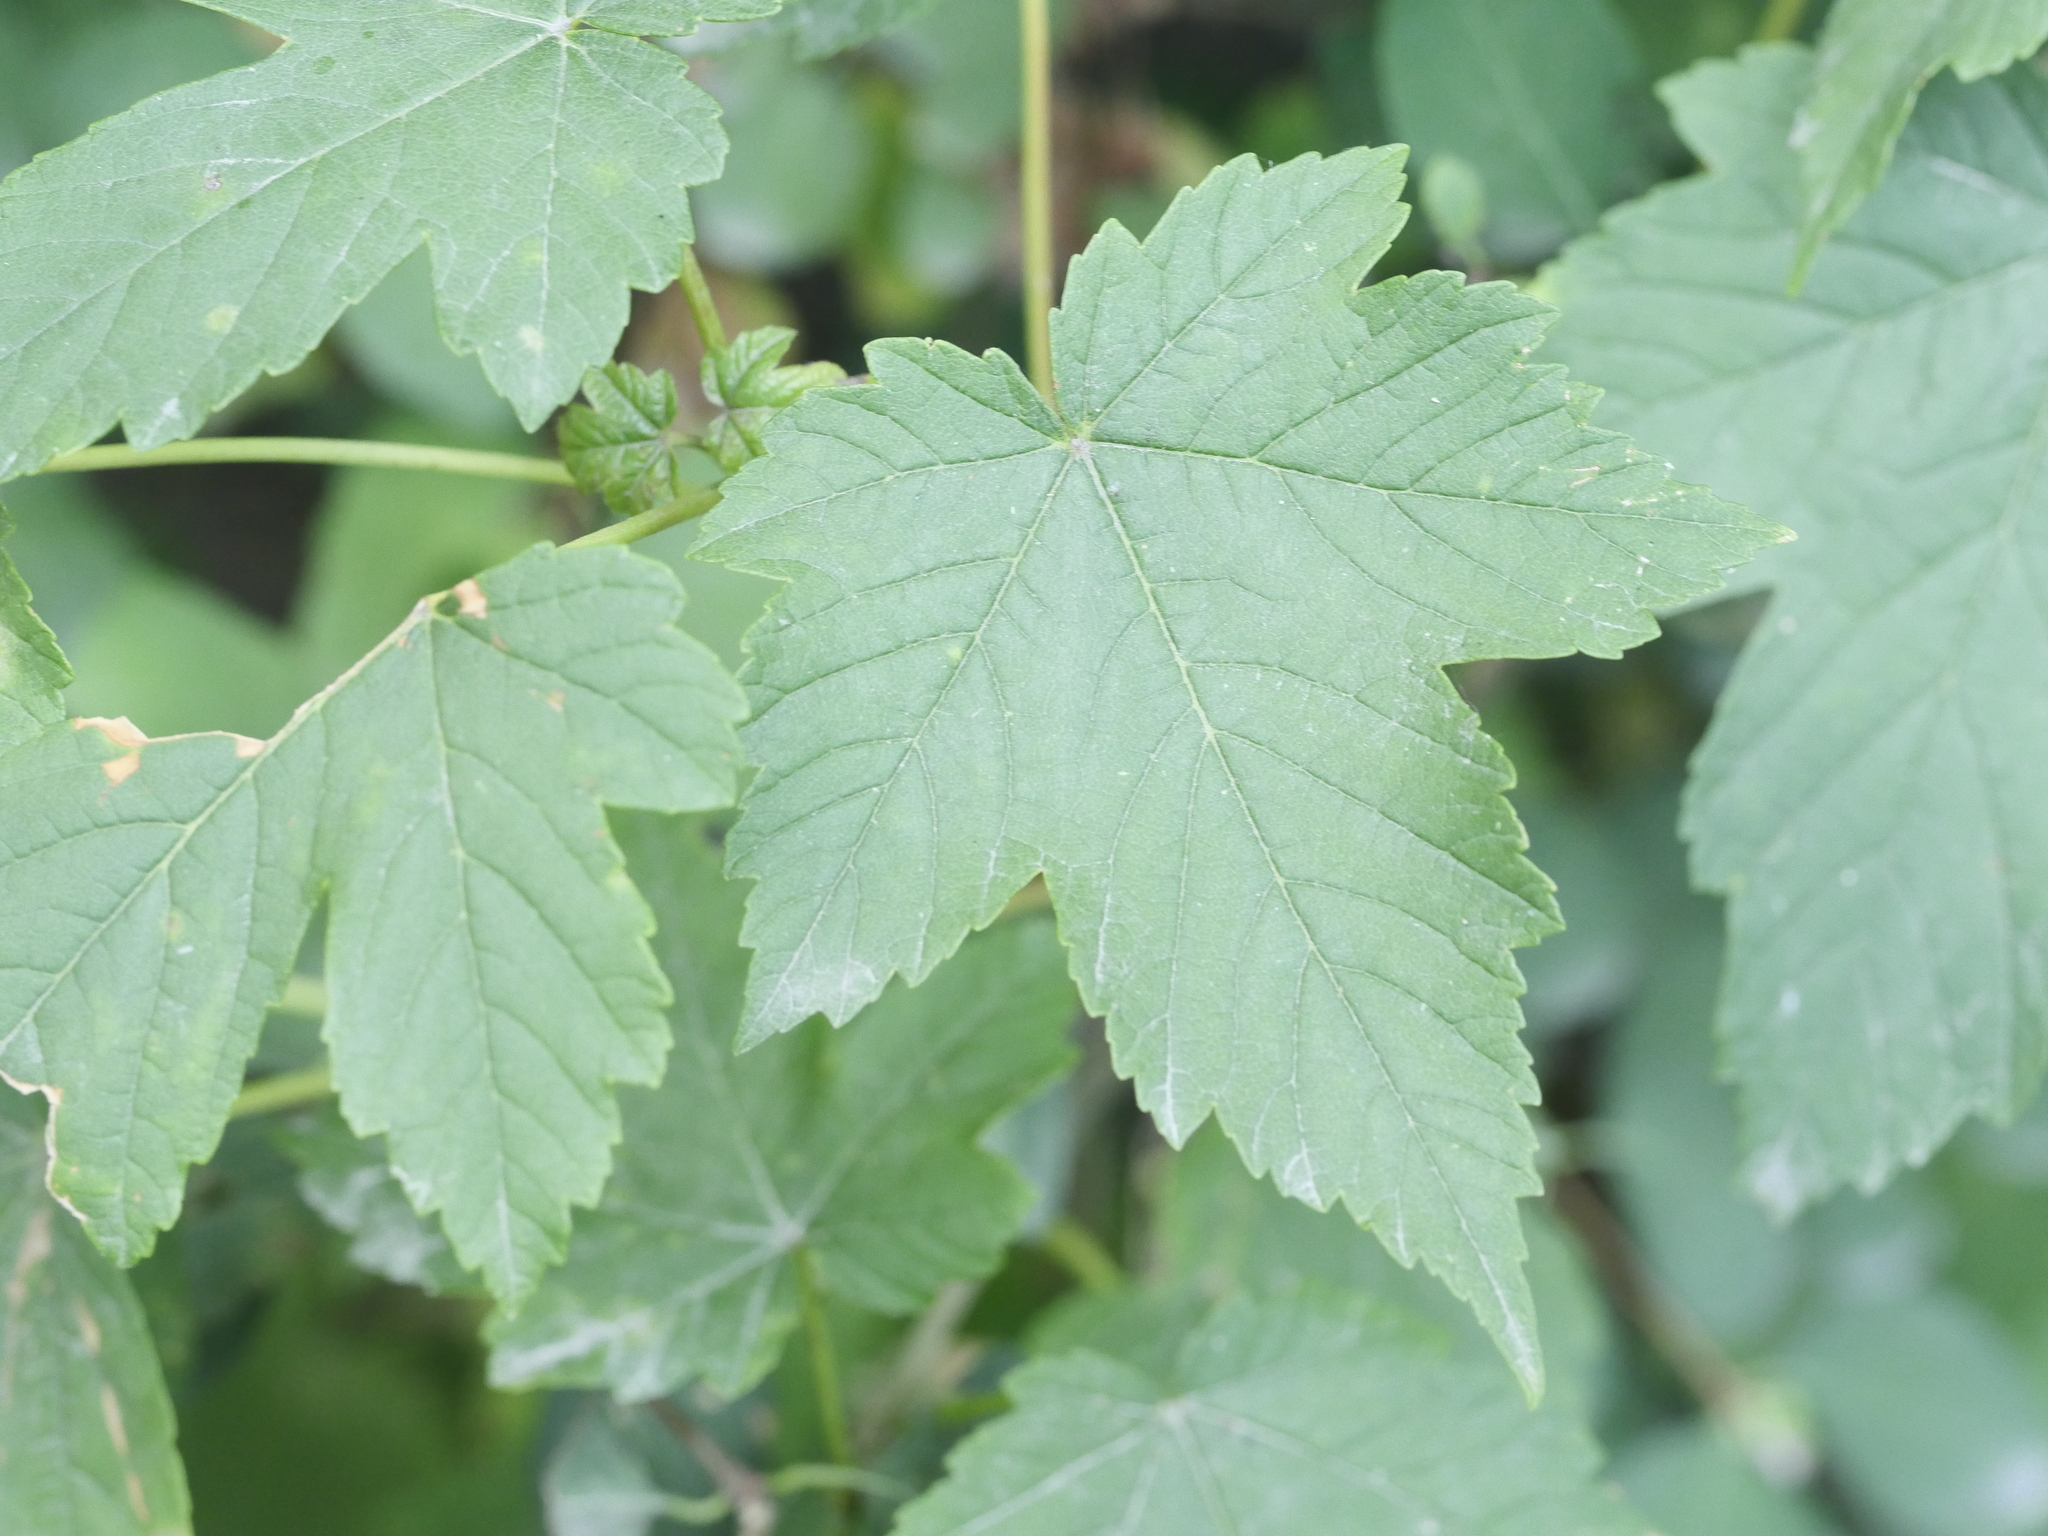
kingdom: Plantae
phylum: Tracheophyta
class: Magnoliopsida
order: Sapindales
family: Sapindaceae
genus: Acer
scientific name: Acer pseudoplatanus
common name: Sycamore
